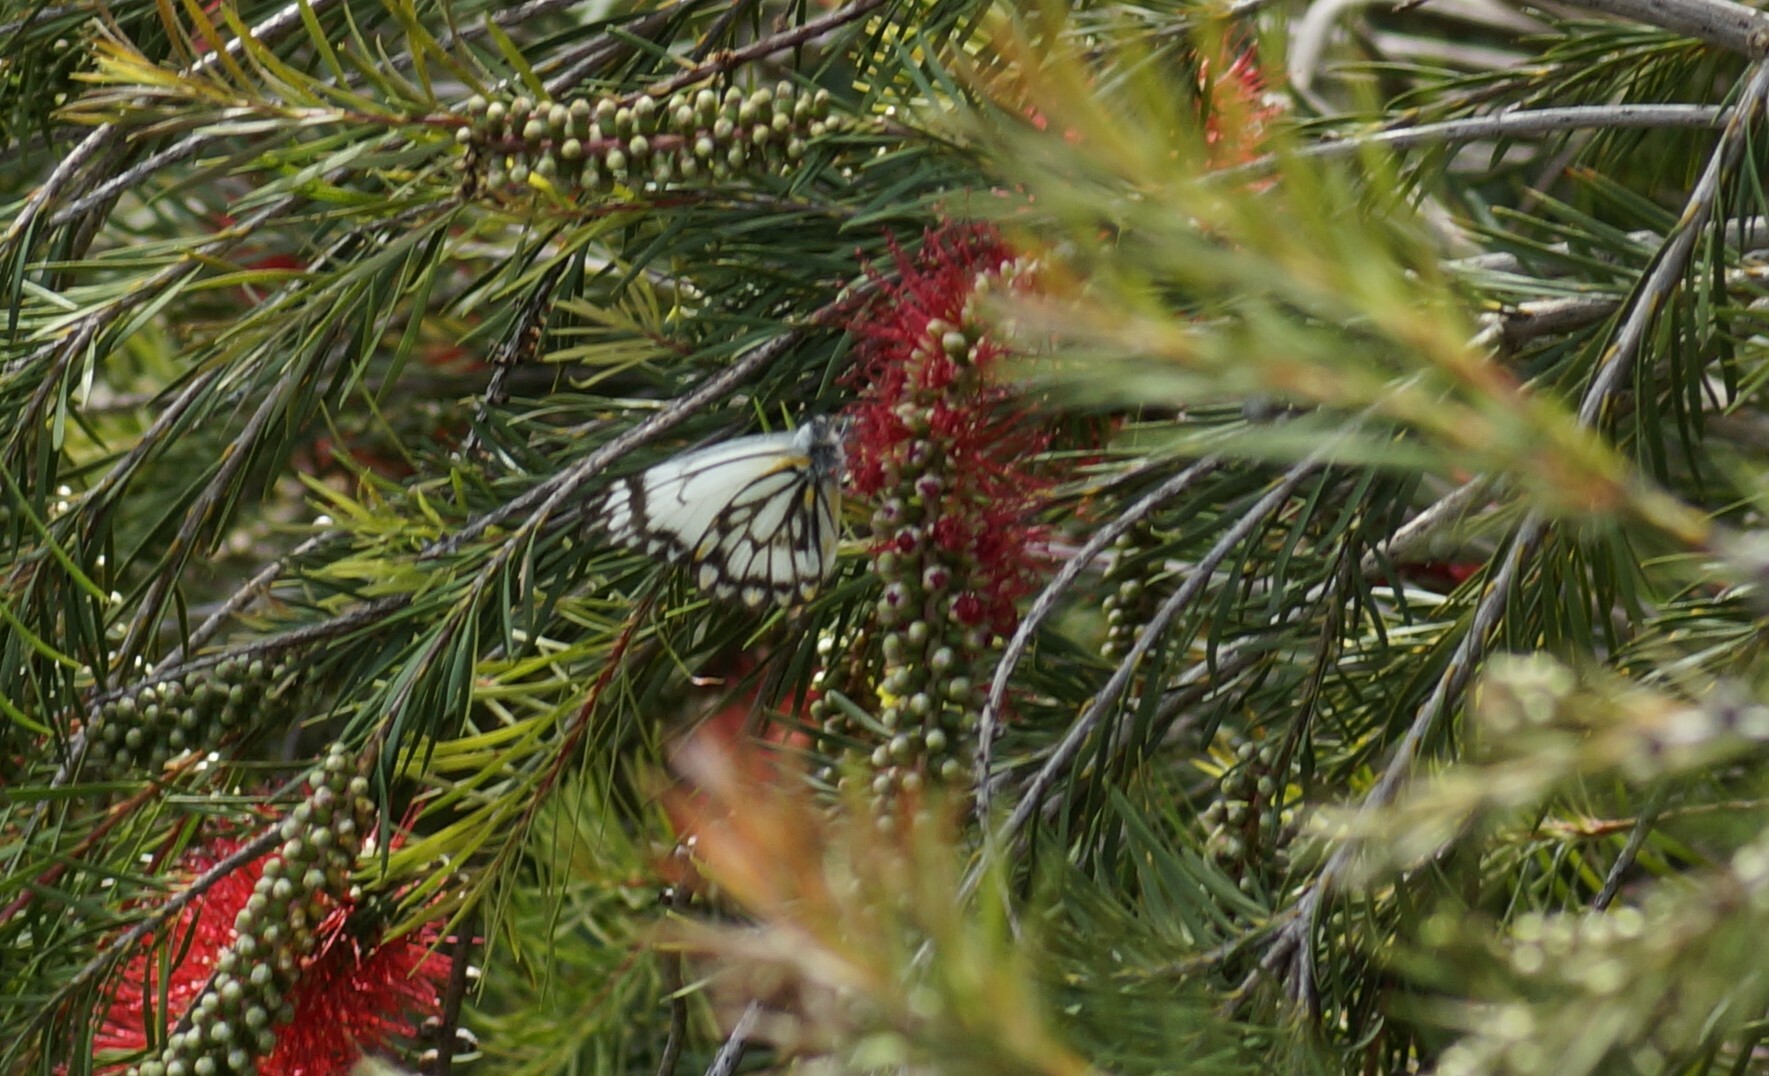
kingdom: Animalia
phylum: Arthropoda
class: Insecta
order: Lepidoptera
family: Pieridae
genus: Belenois
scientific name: Belenois java
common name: Caper white
